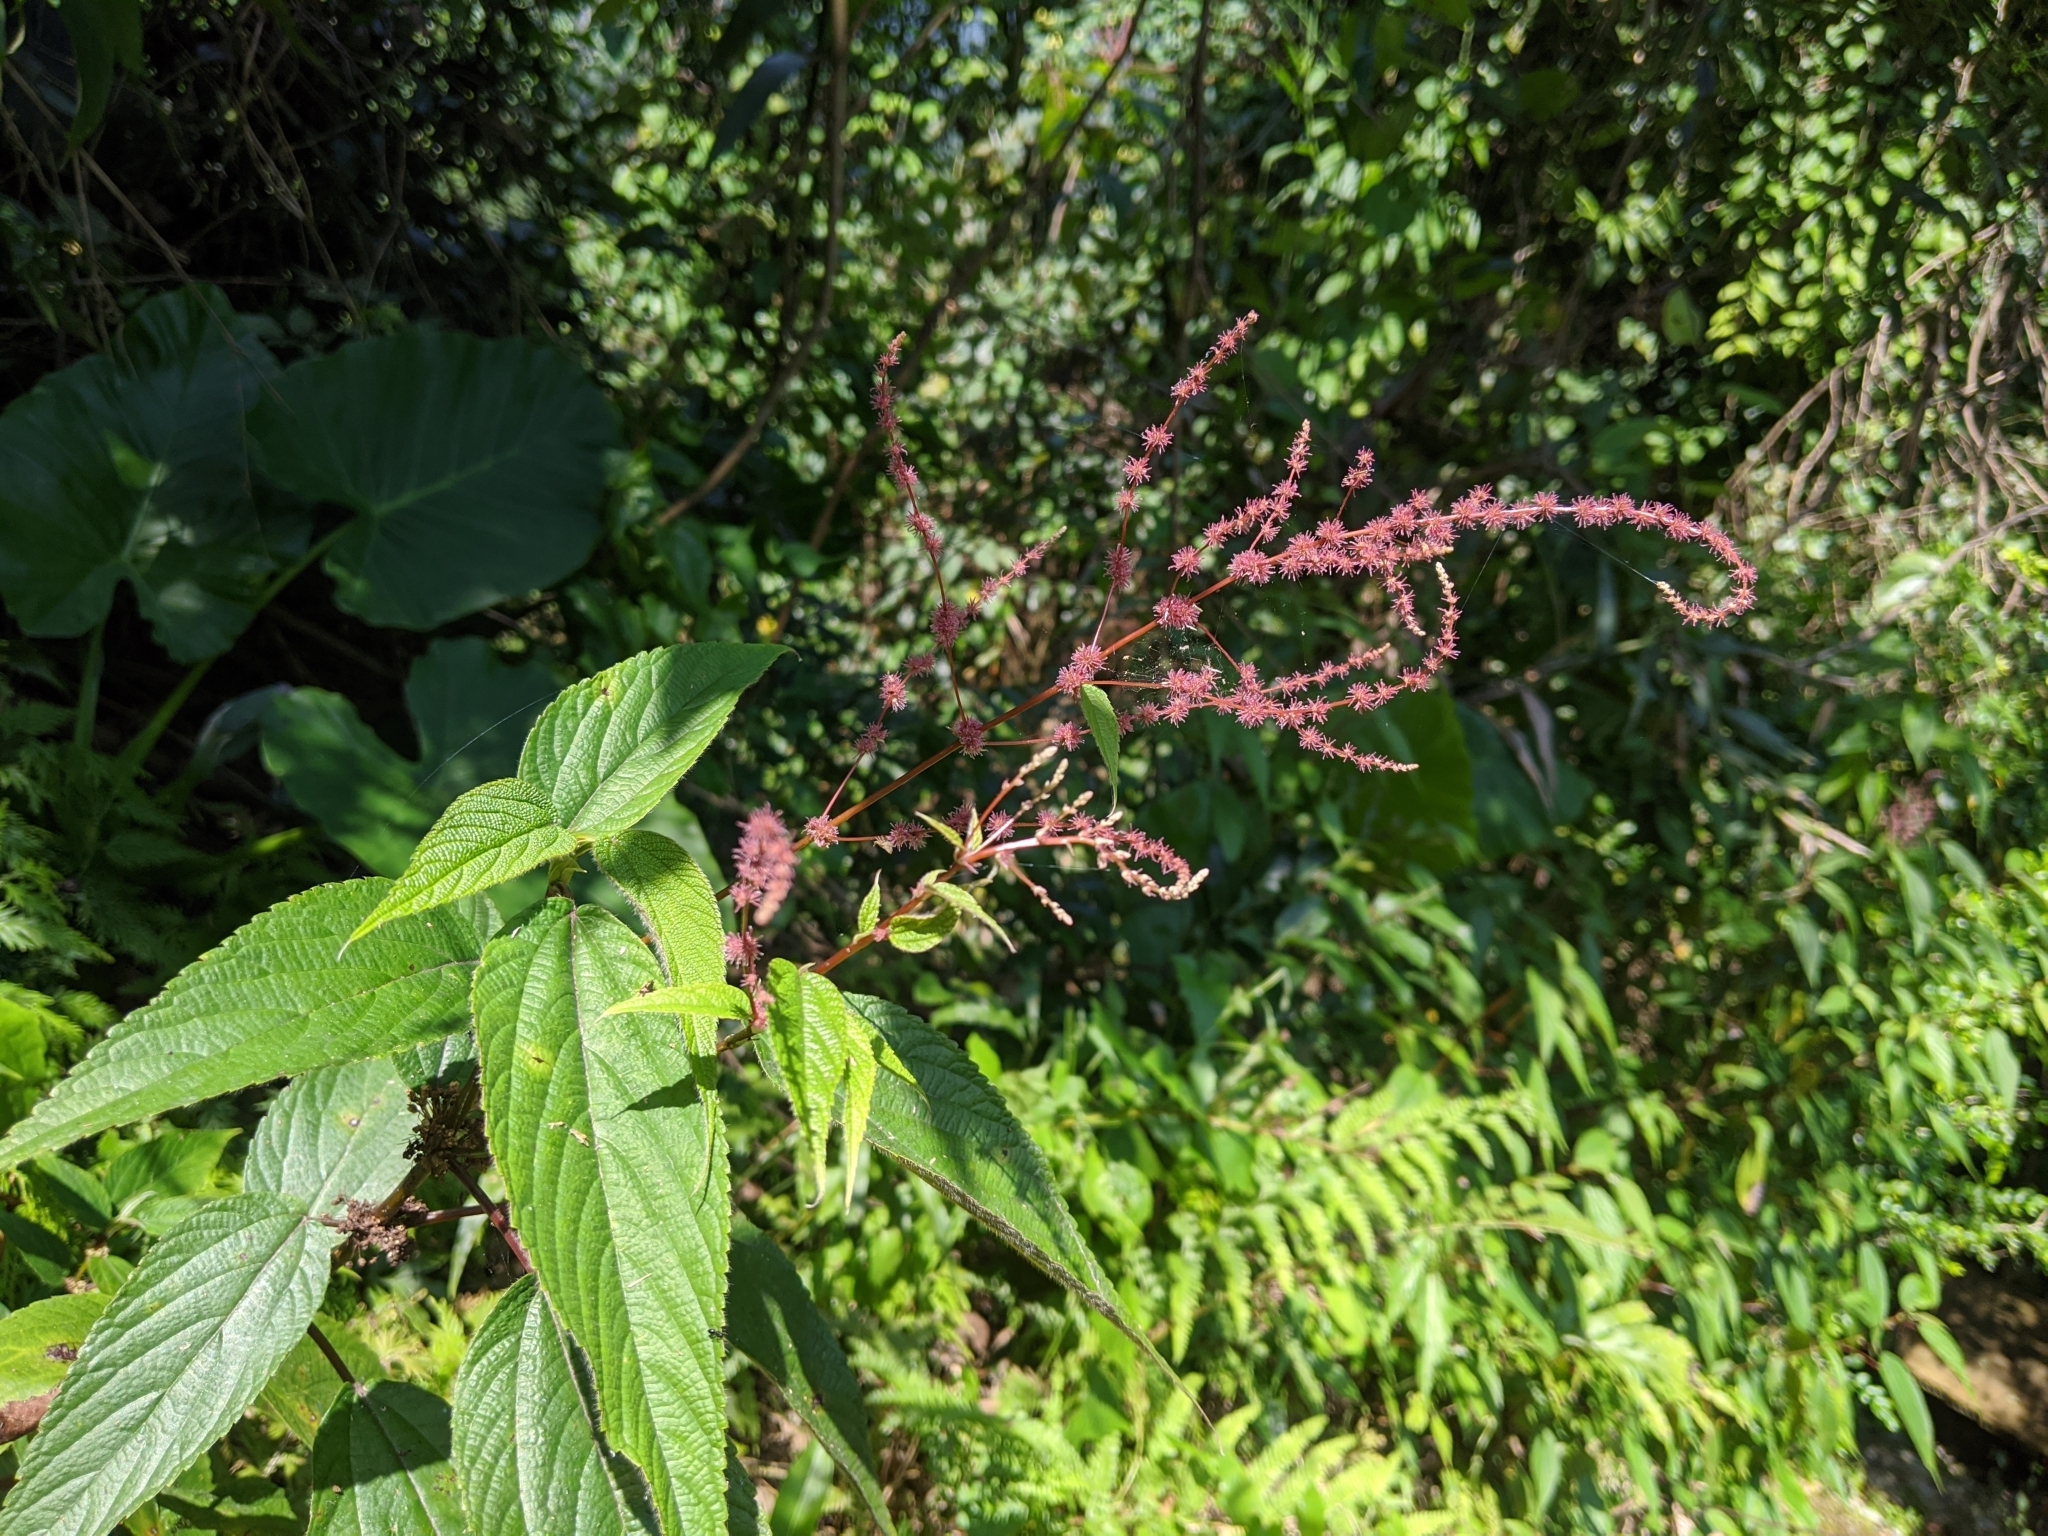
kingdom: Plantae
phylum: Tracheophyta
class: Magnoliopsida
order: Rosales
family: Urticaceae
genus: Boehmeria
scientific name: Boehmeria zollingeriana
